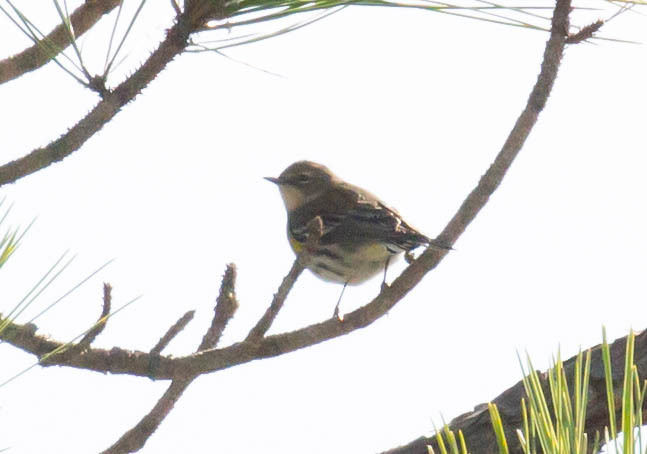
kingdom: Animalia
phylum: Chordata
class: Aves
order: Passeriformes
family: Parulidae
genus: Setophaga
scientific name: Setophaga coronata
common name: Myrtle warbler
